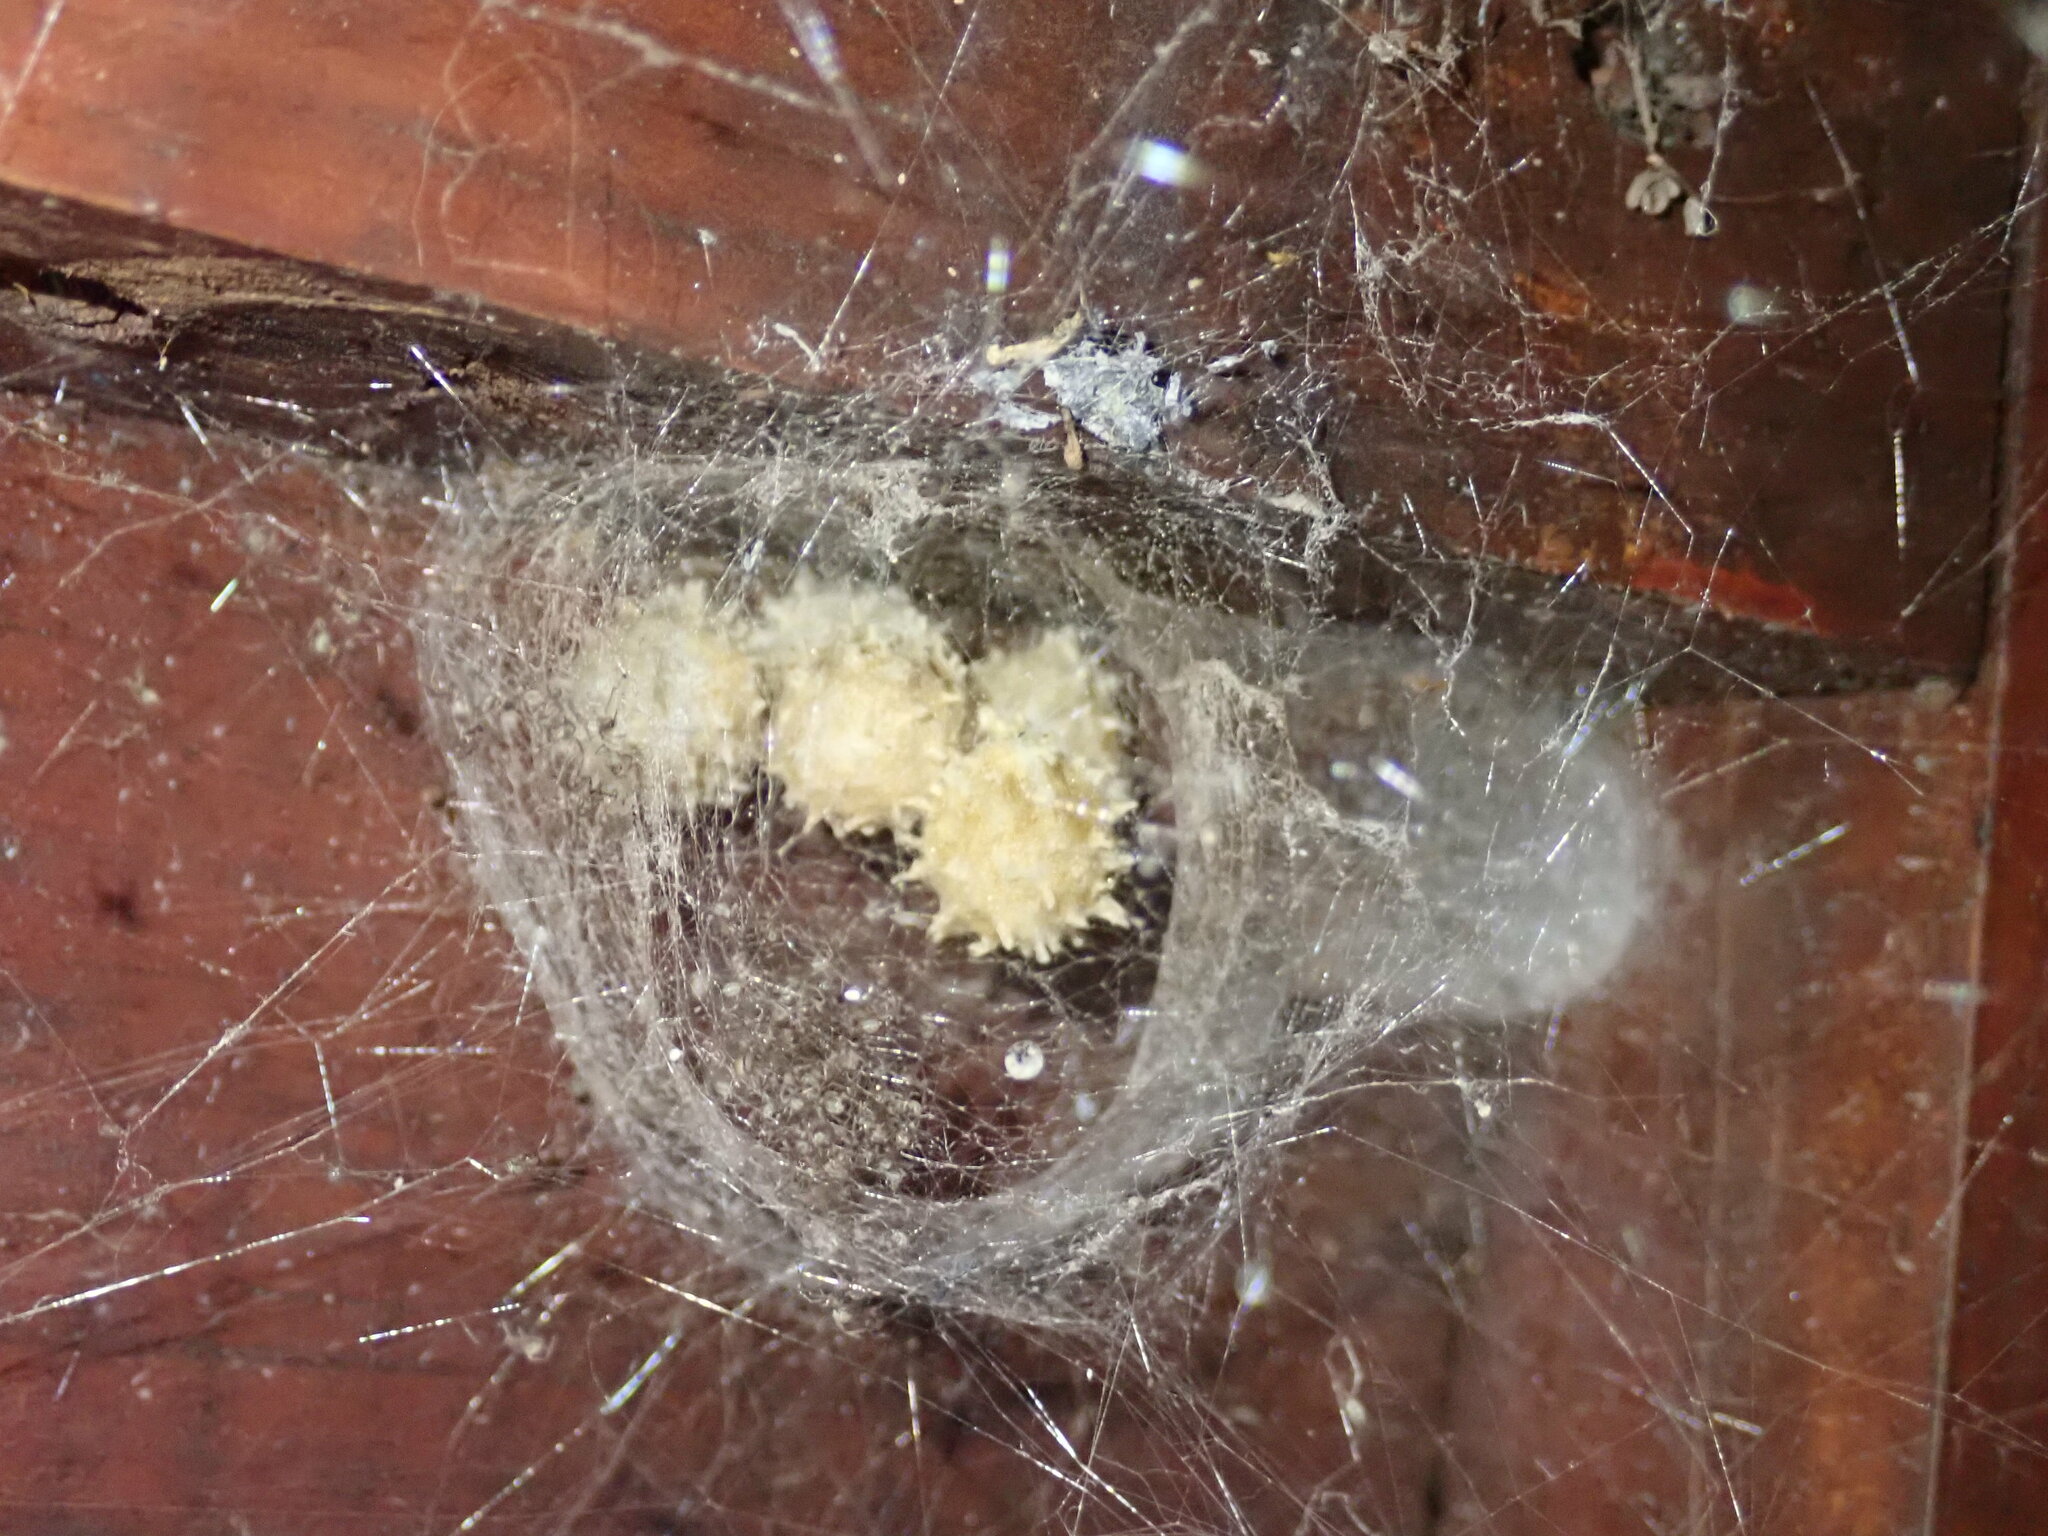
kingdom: Animalia
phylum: Arthropoda
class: Arachnida
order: Araneae
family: Theridiidae
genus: Latrodectus
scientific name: Latrodectus geometricus
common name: Brown widow spider
